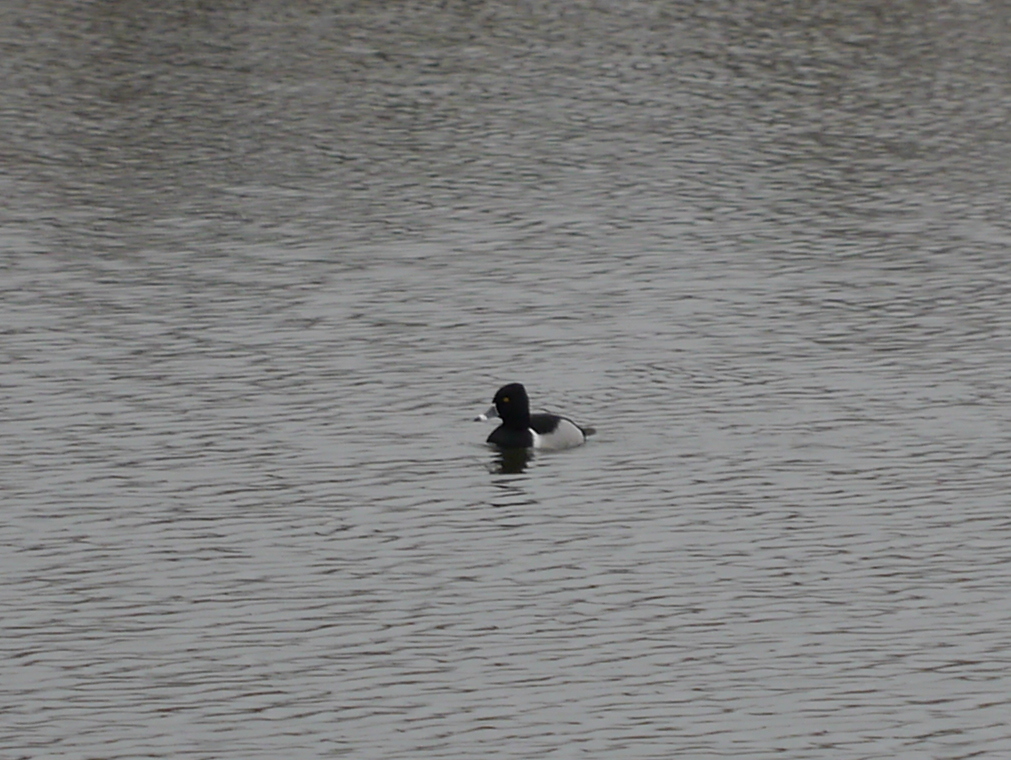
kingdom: Animalia
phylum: Chordata
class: Aves
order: Anseriformes
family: Anatidae
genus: Aythya
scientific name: Aythya collaris
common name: Ring-necked duck
